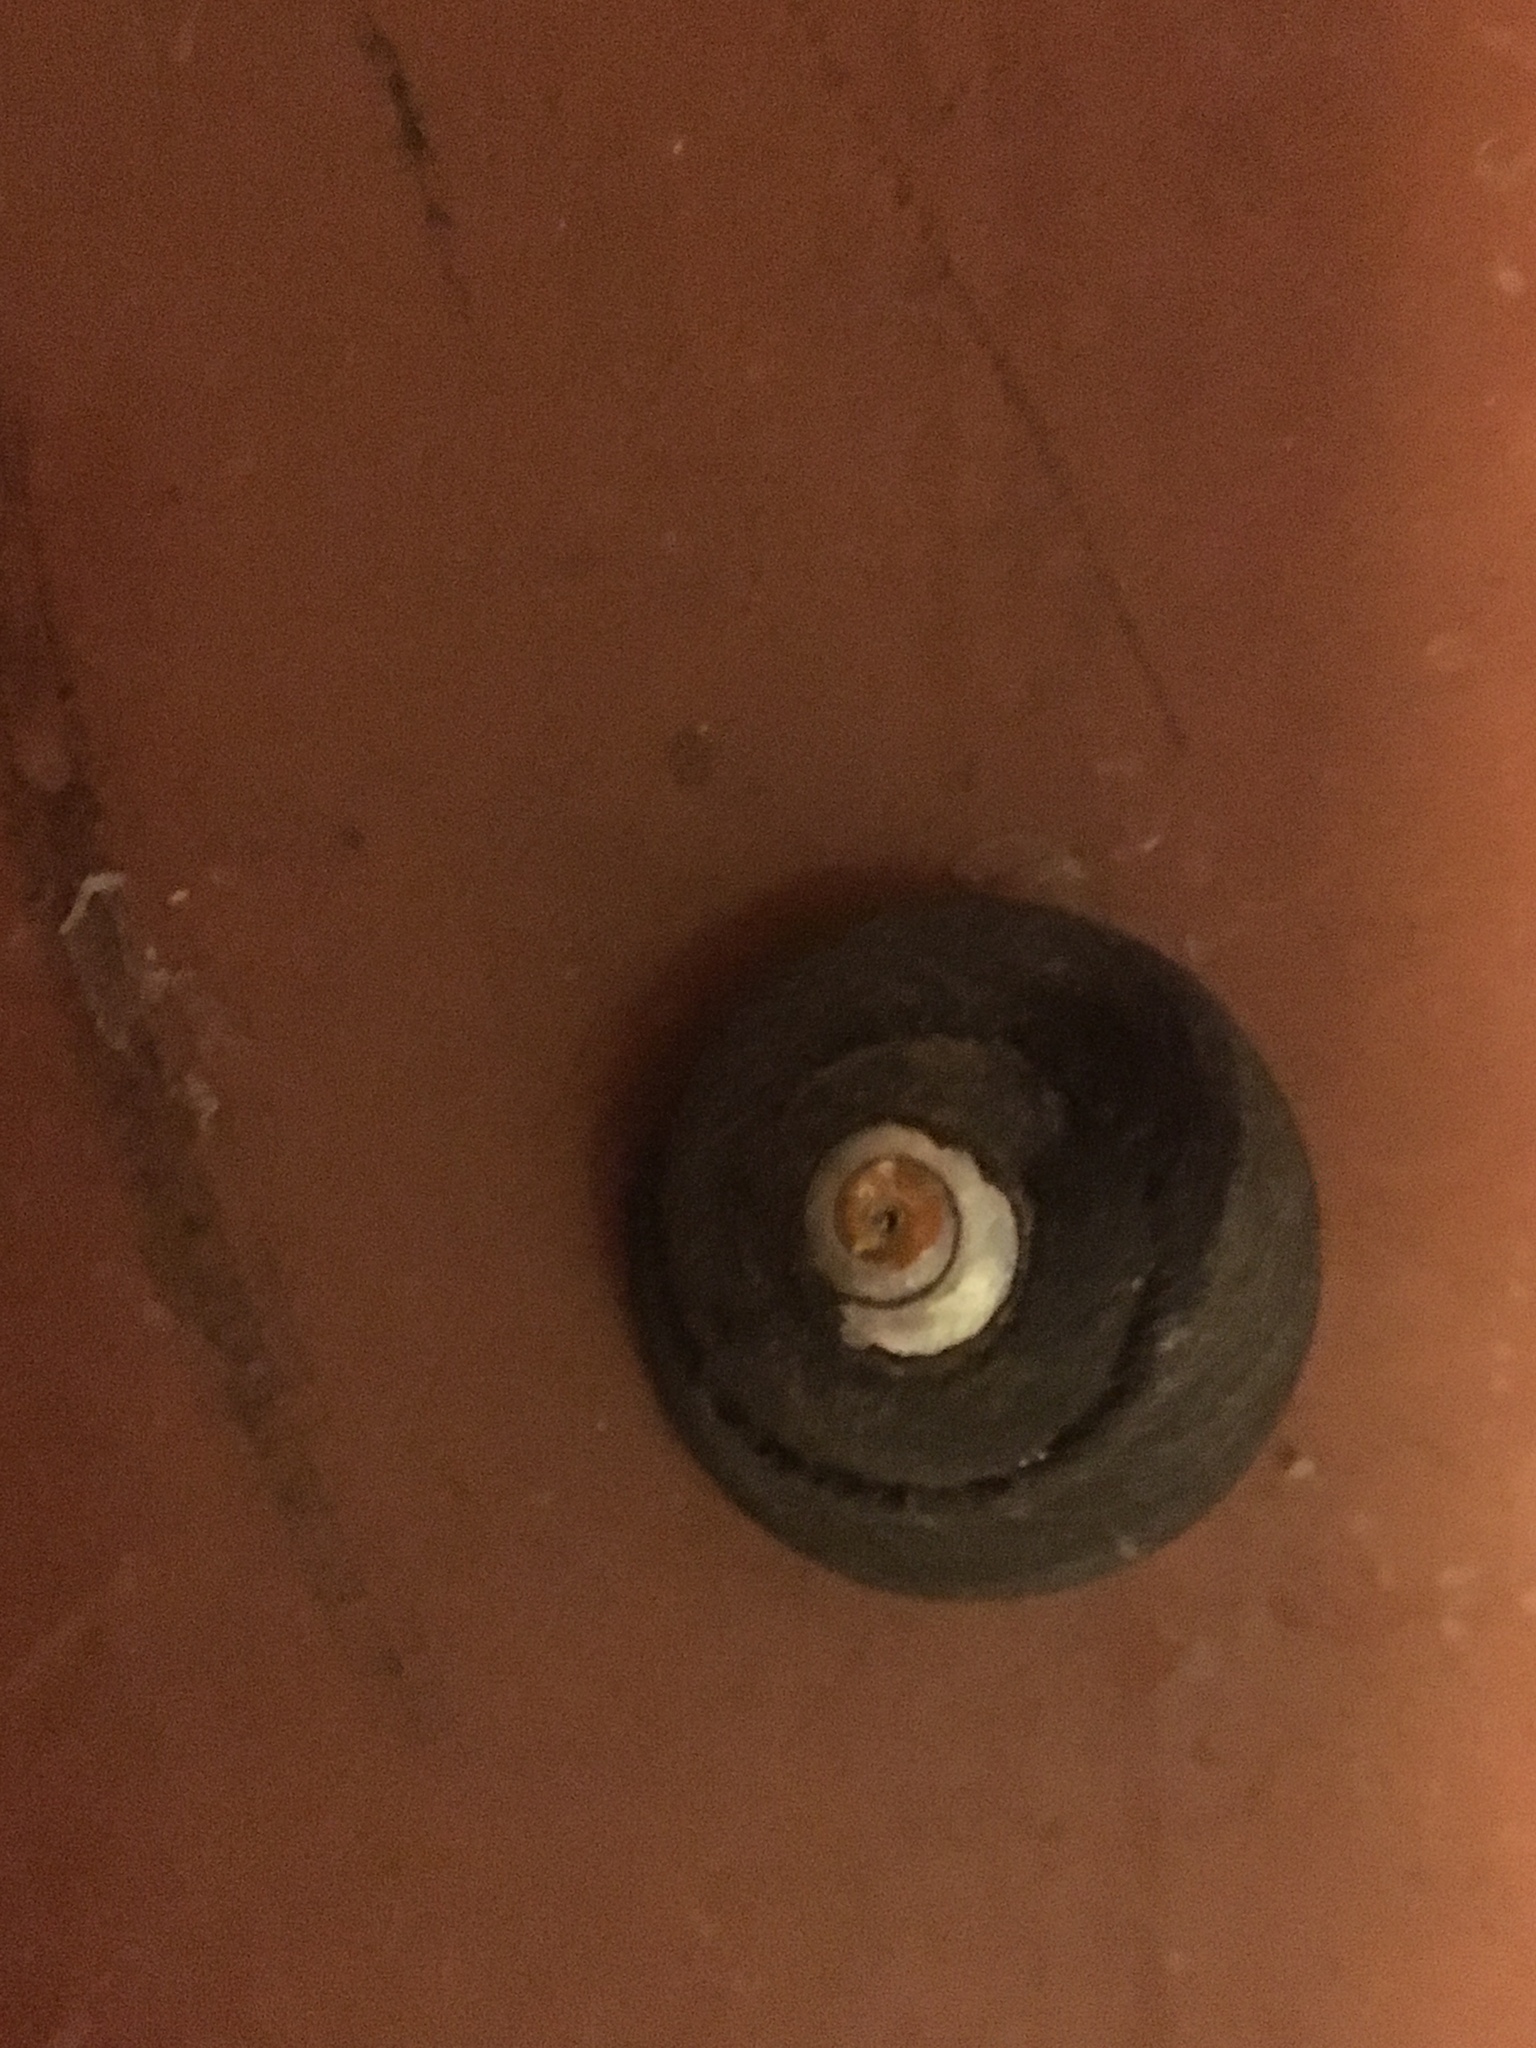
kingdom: Animalia
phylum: Mollusca
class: Gastropoda
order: Trochida
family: Tegulidae
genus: Tegula
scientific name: Tegula funebralis
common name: Black tegula
